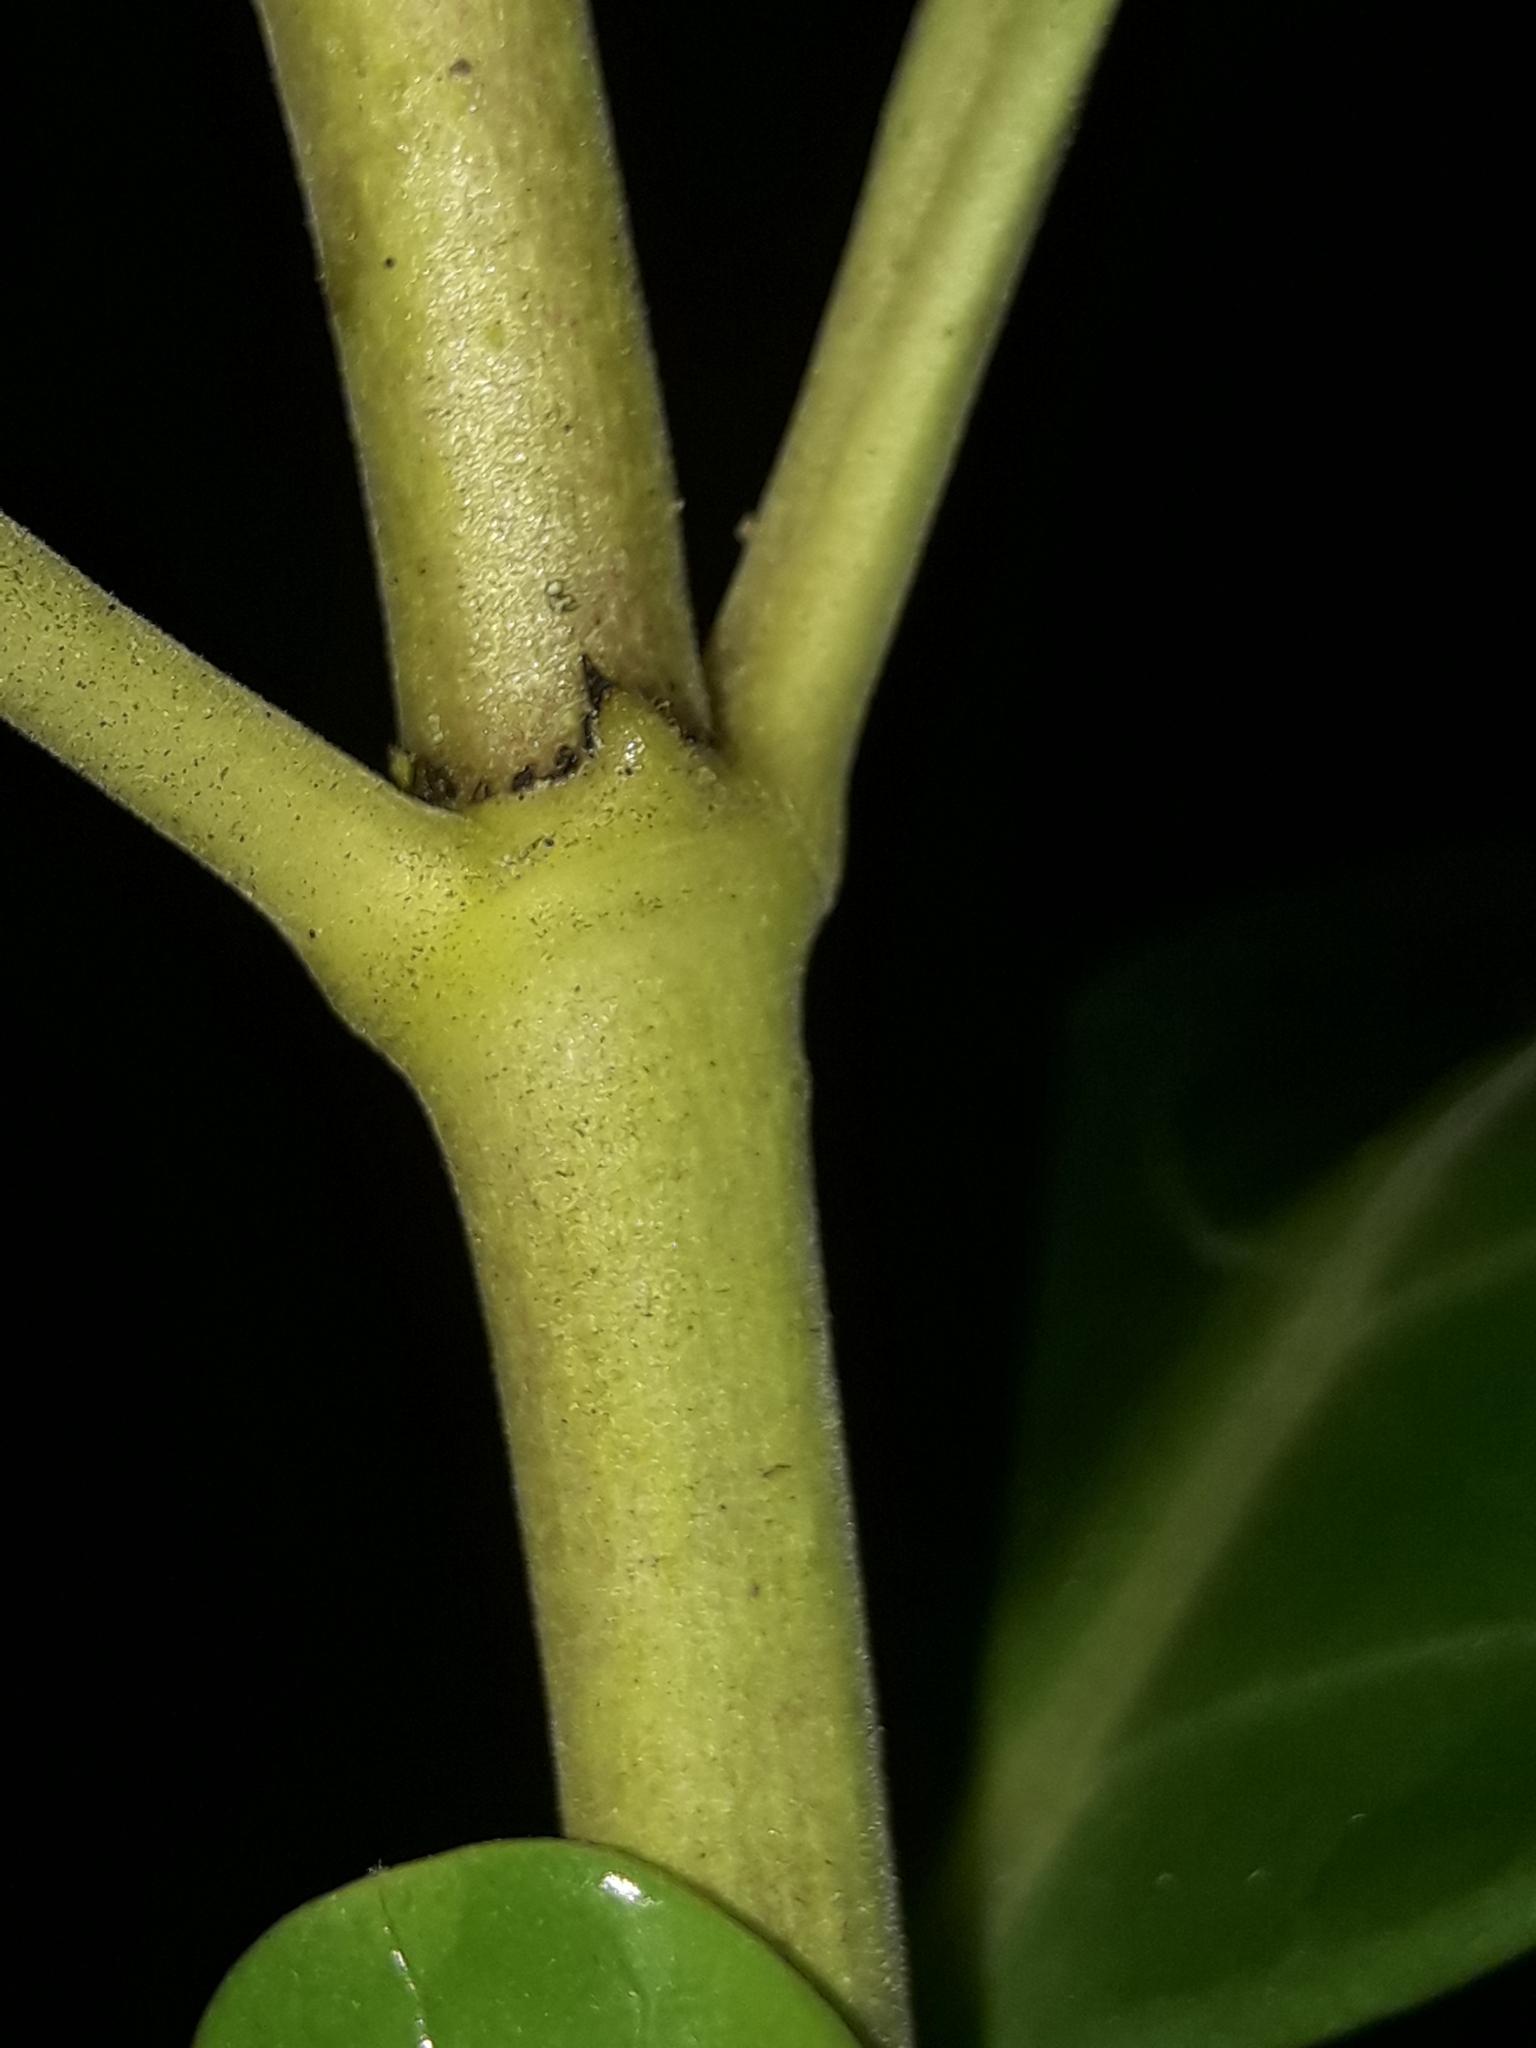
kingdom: Plantae
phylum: Tracheophyta
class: Magnoliopsida
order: Gentianales
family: Rubiaceae
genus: Coprosma
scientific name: Coprosma repens
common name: Tree bedstraw
